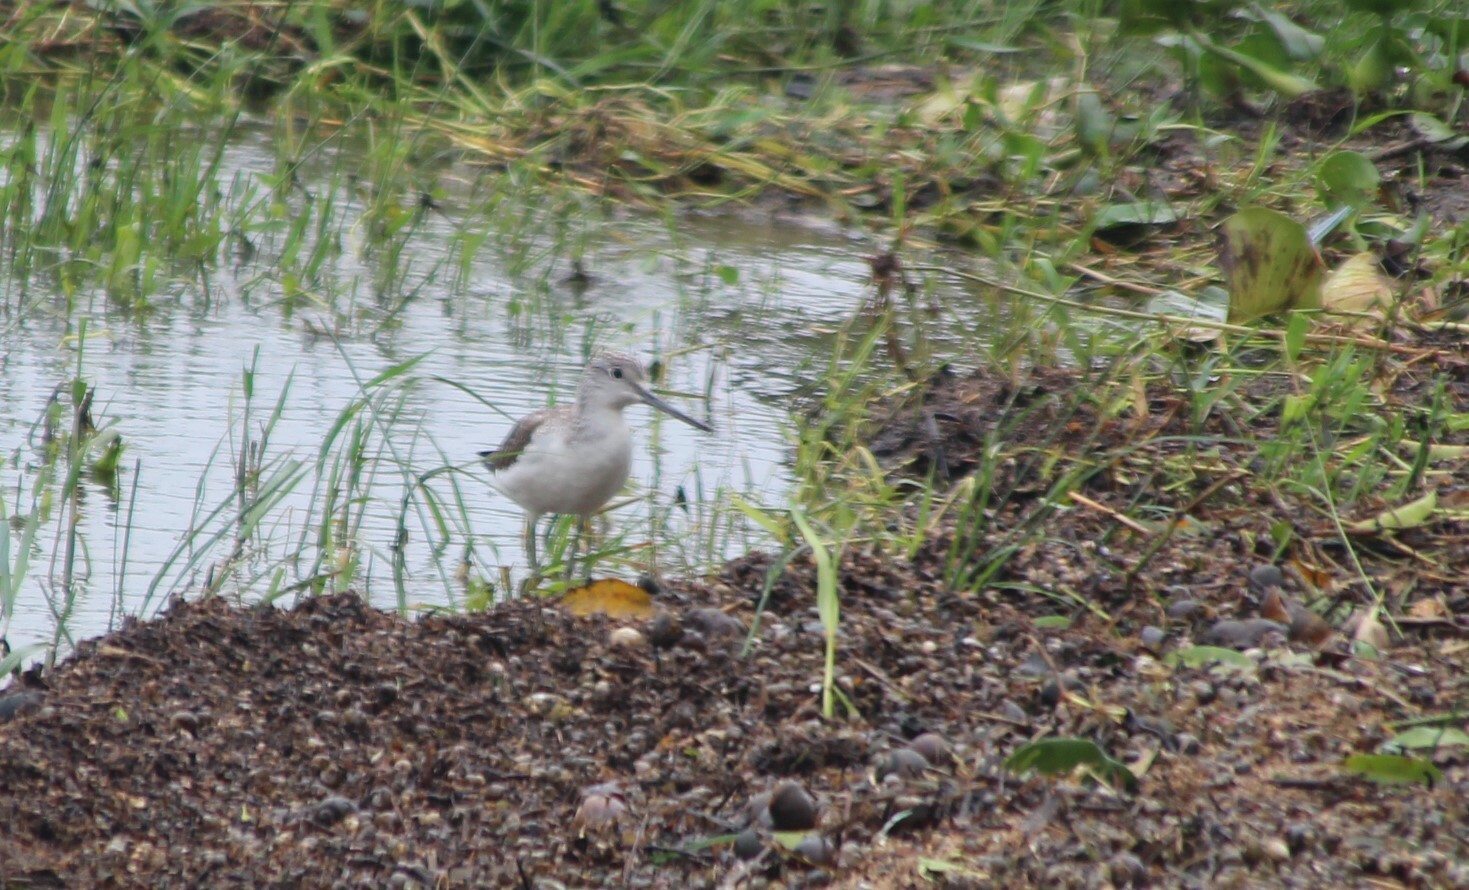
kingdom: Animalia
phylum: Chordata
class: Aves
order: Charadriiformes
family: Scolopacidae
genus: Tringa
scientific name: Tringa nebularia
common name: Common greenshank
